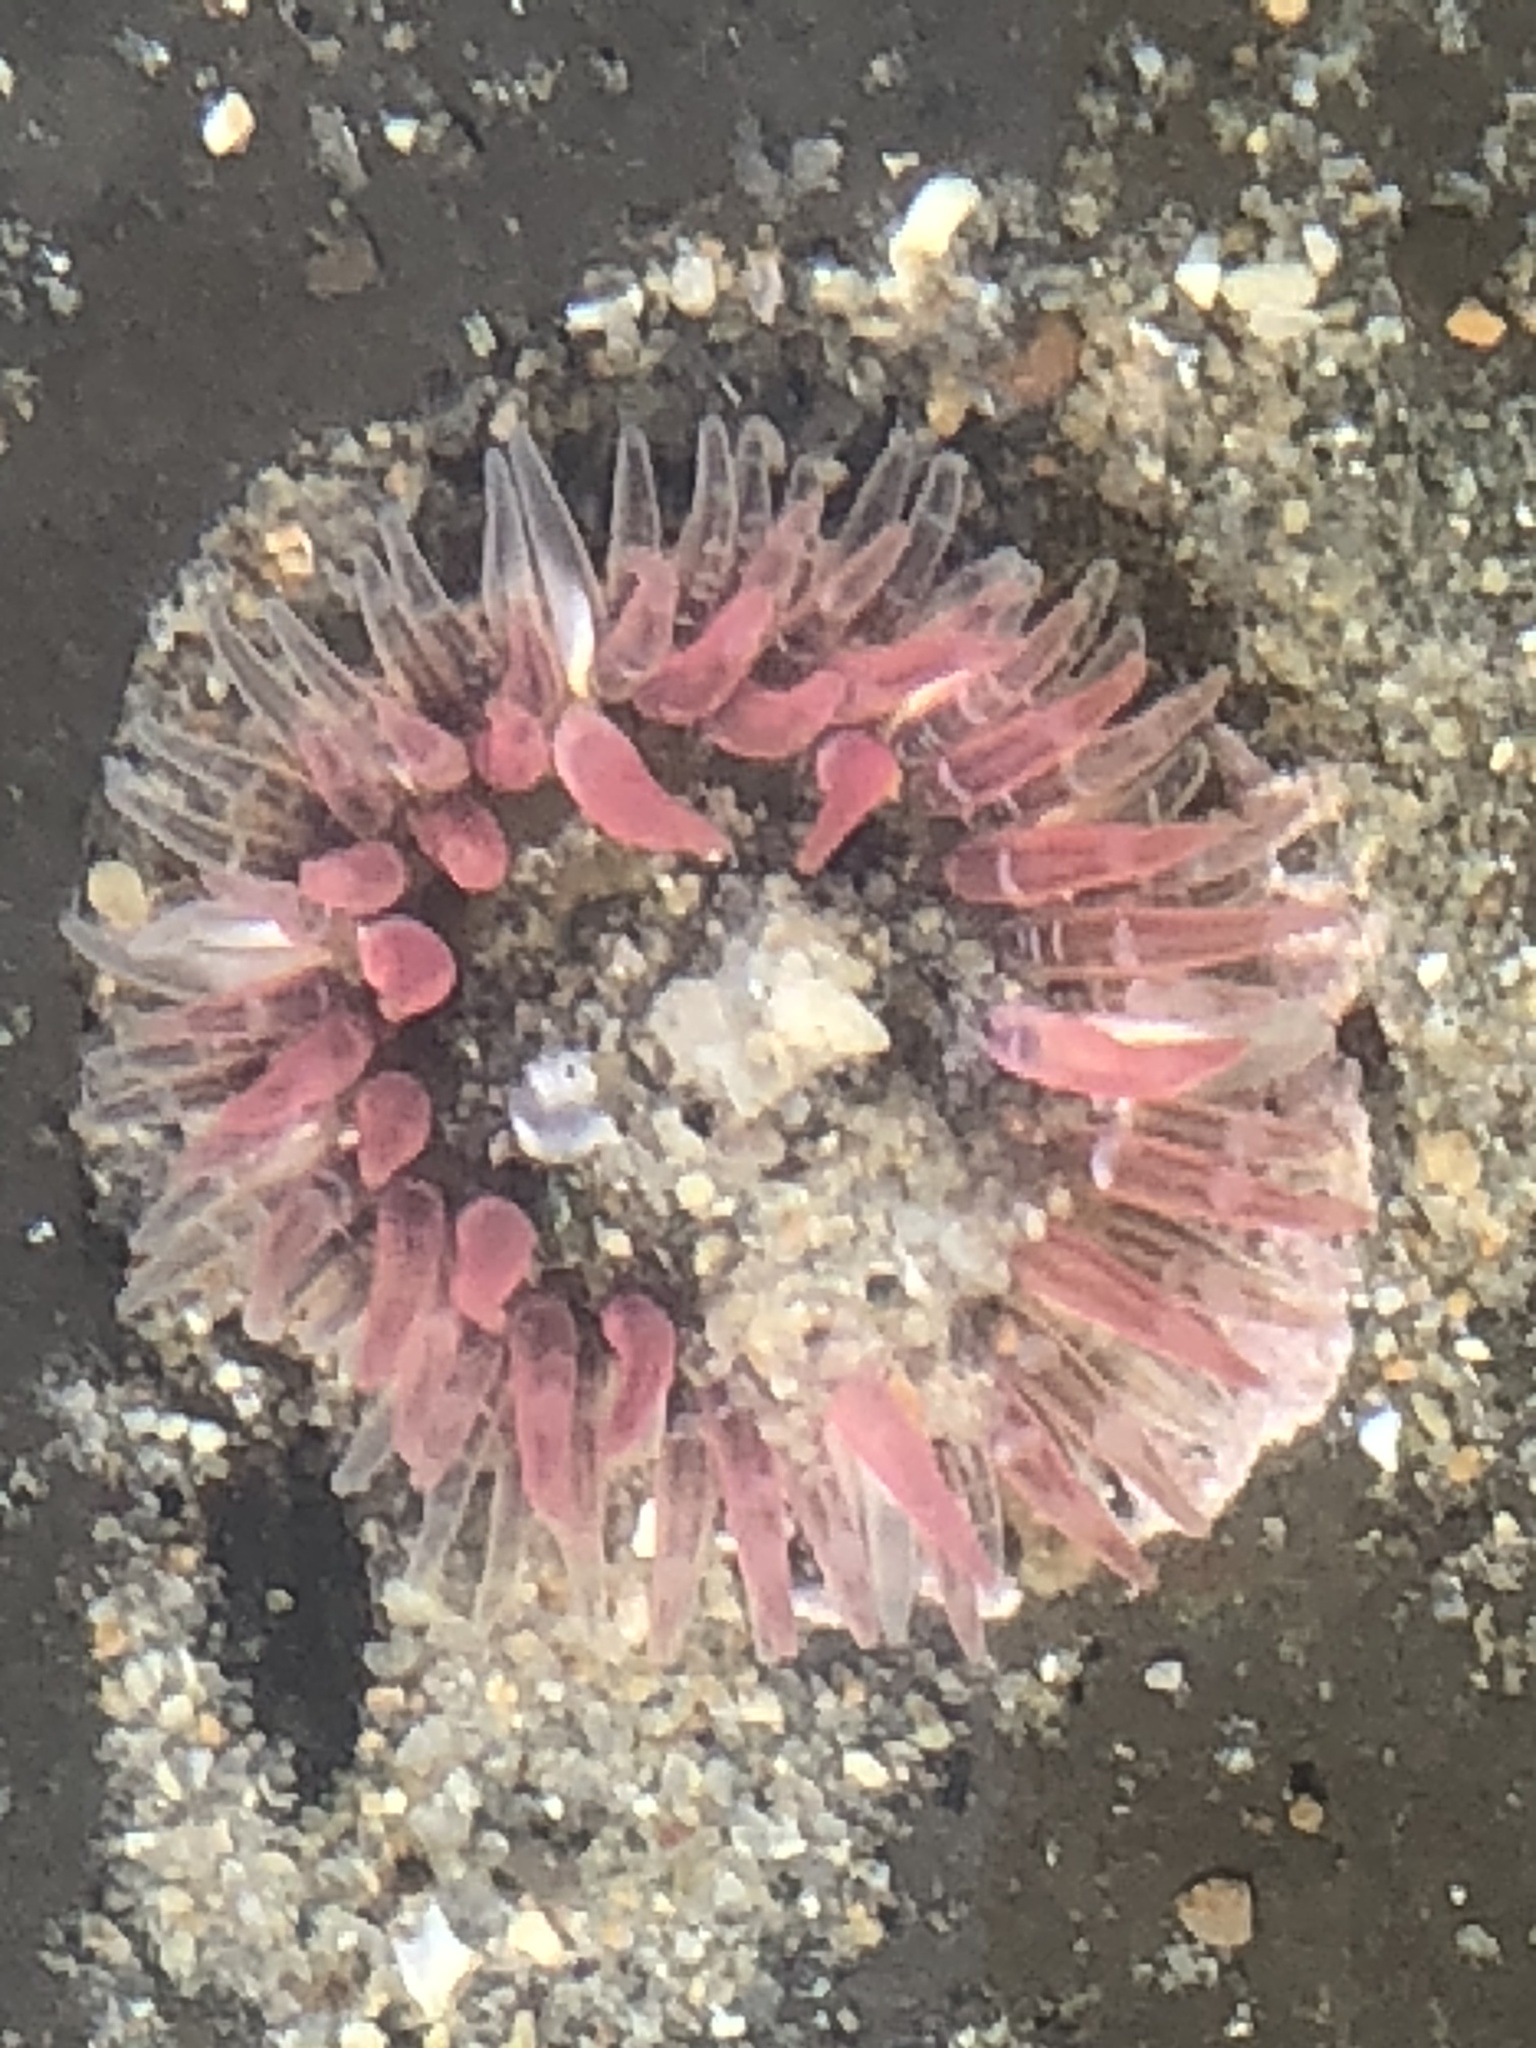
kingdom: Animalia
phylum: Cnidaria
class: Anthozoa
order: Actiniaria
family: Actiniidae
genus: Anthopleura
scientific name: Anthopleura artemisia
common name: Buried sea anemone
